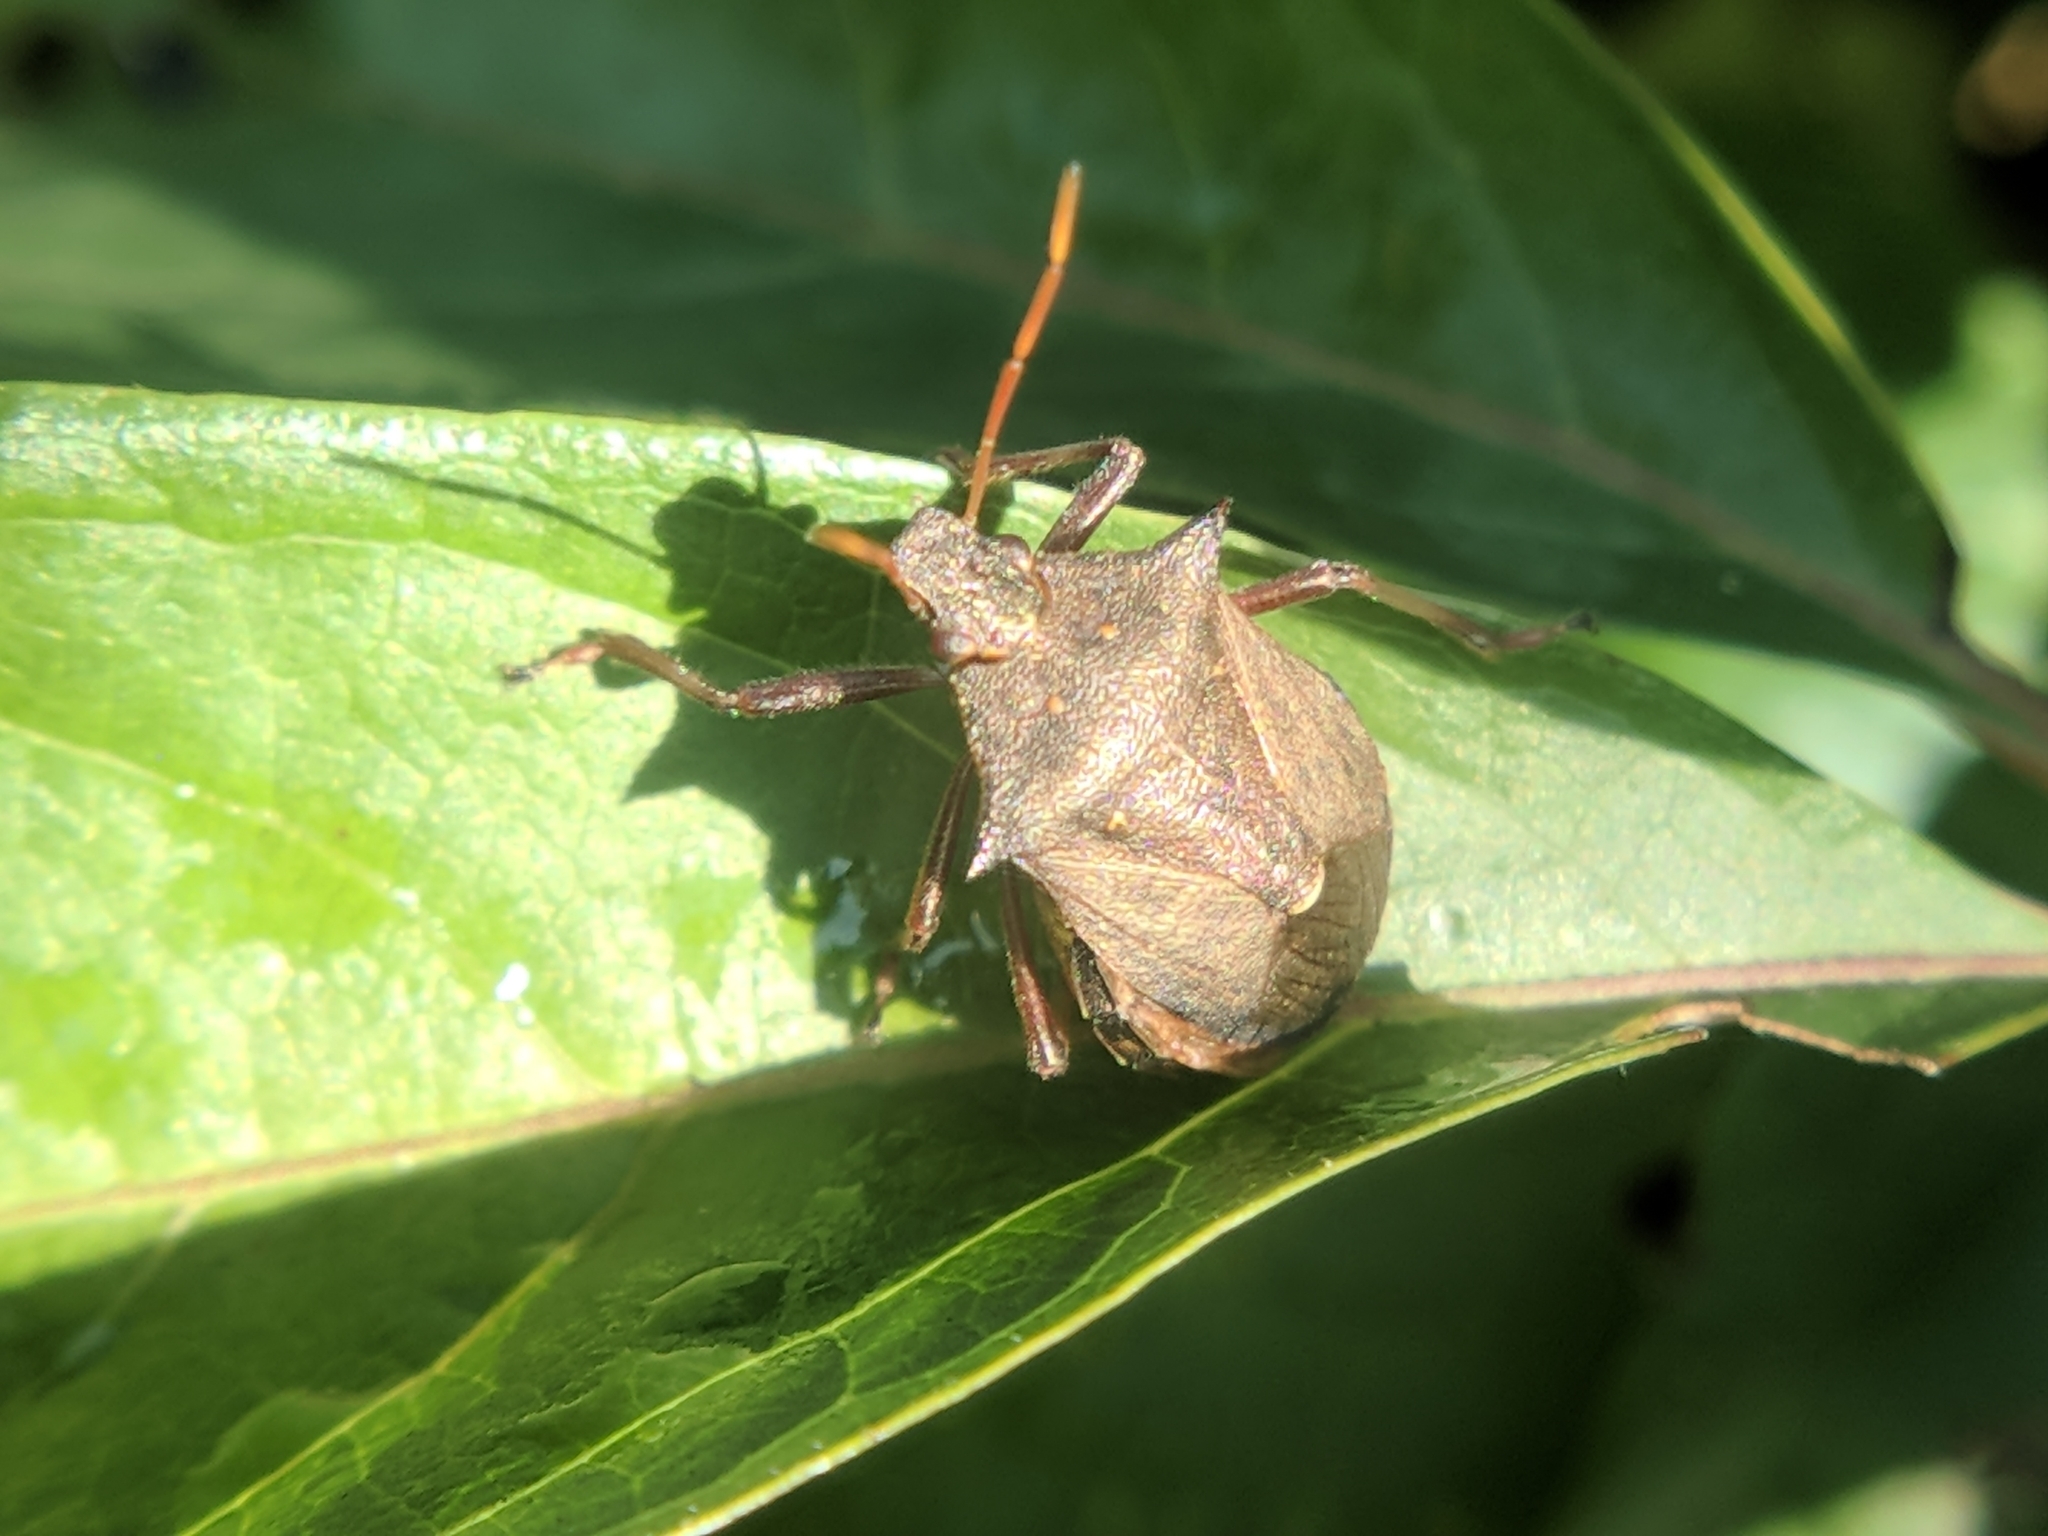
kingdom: Animalia
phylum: Arthropoda
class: Insecta
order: Hemiptera
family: Pentatomidae
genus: Picromerus
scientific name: Picromerus bidens
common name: Spiked shieldbug
